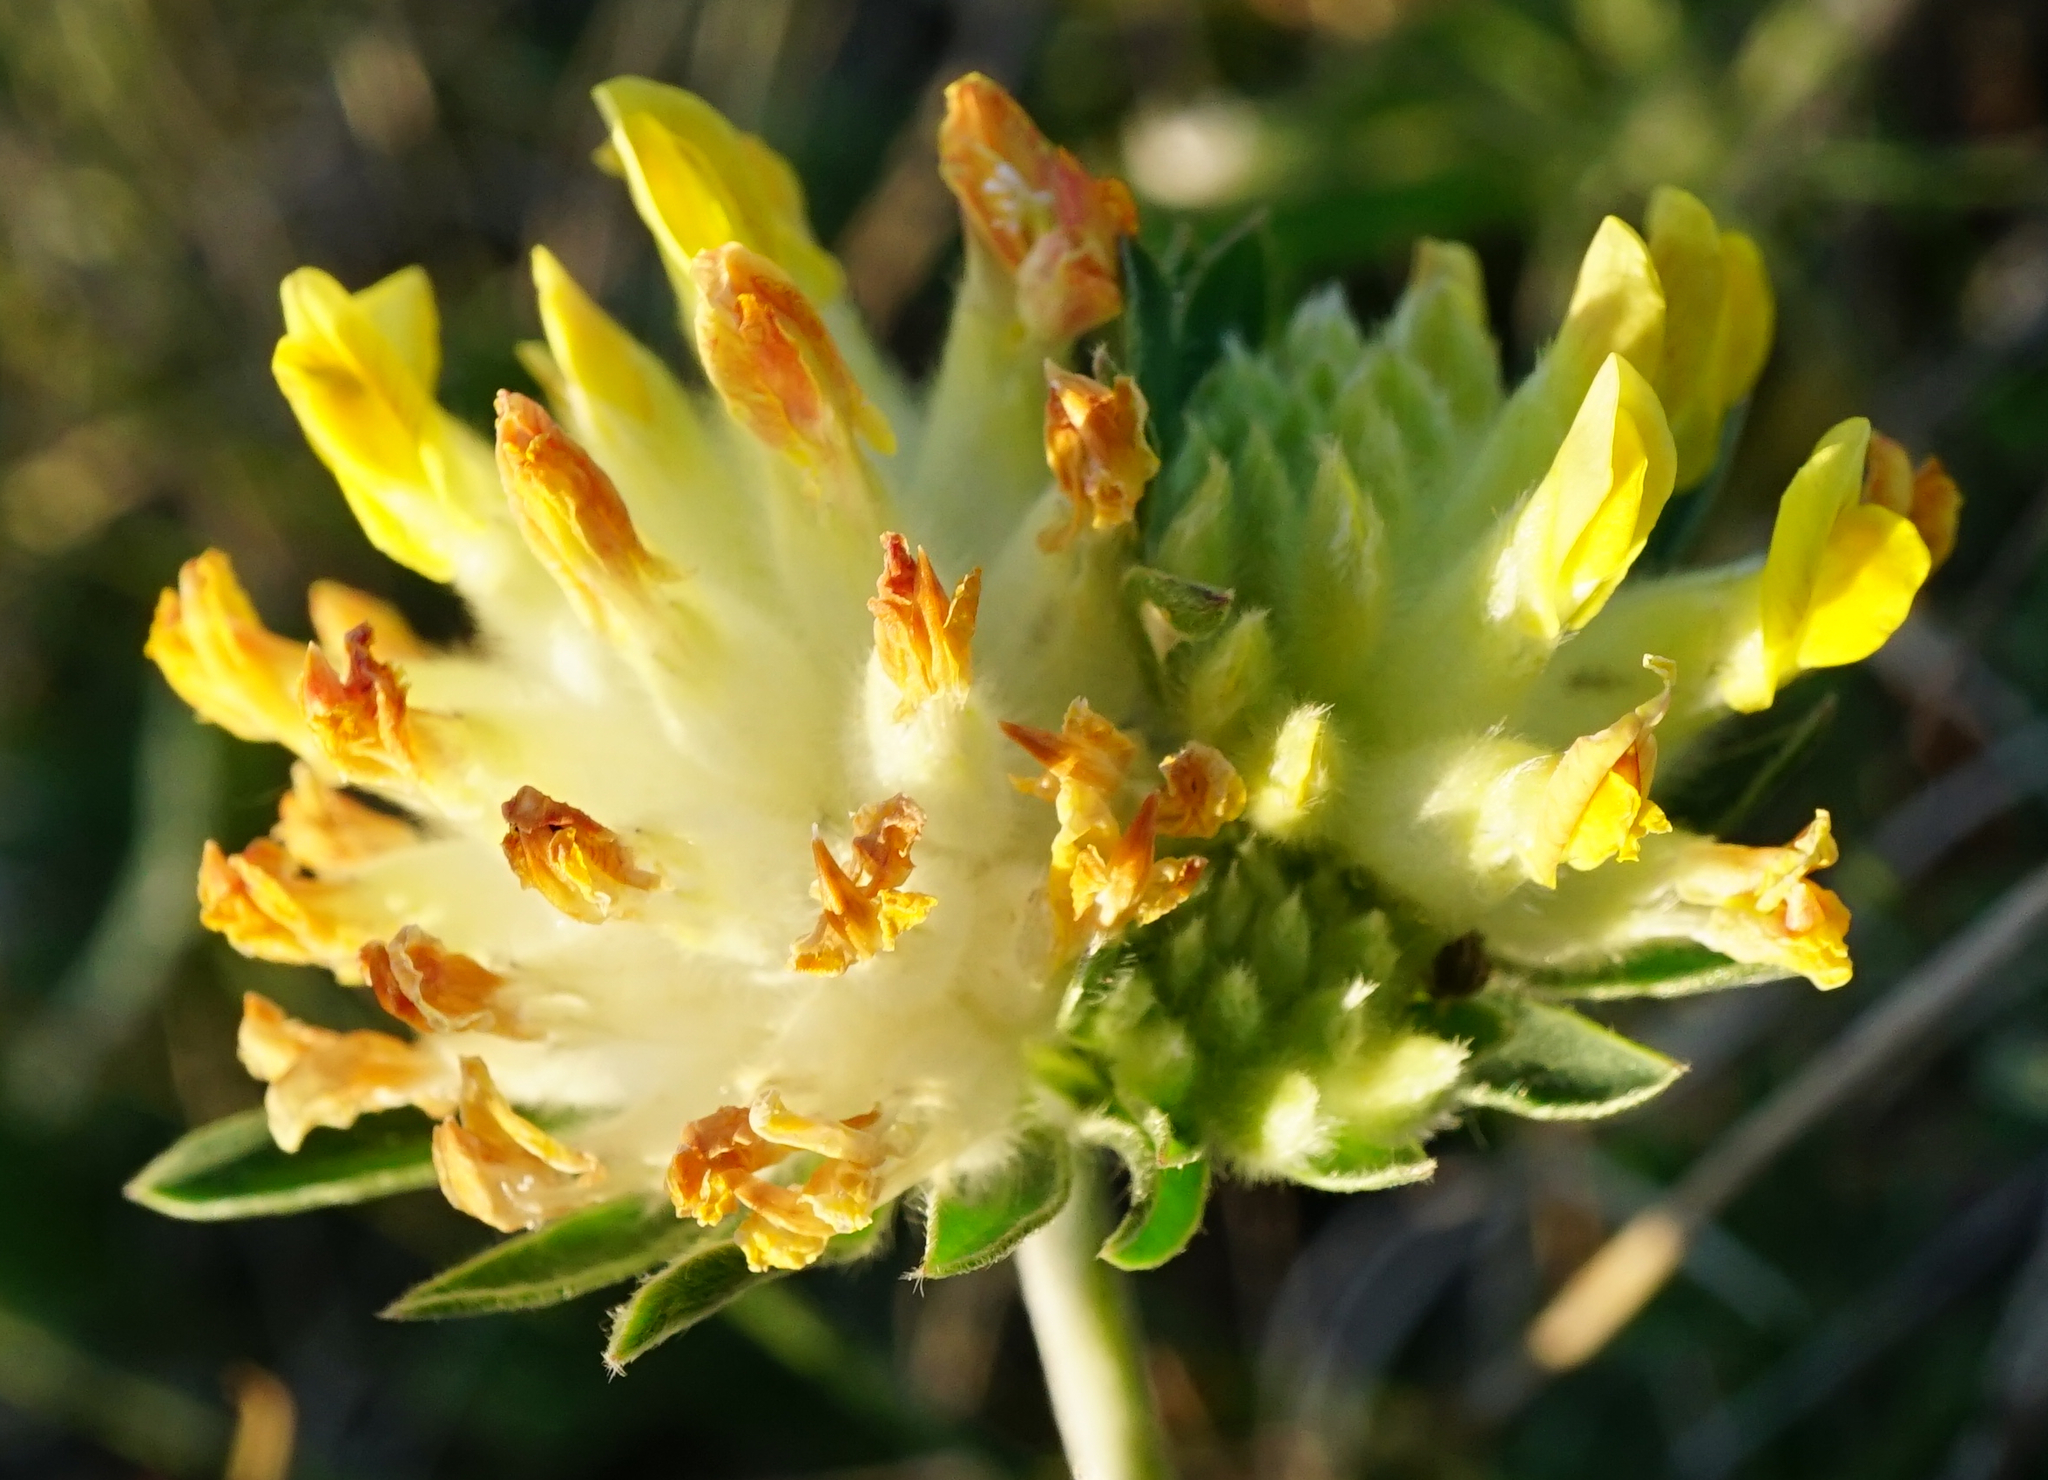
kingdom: Plantae
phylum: Tracheophyta
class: Magnoliopsida
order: Fabales
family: Fabaceae
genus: Anthyllis
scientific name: Anthyllis vulneraria
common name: Kidney vetch
